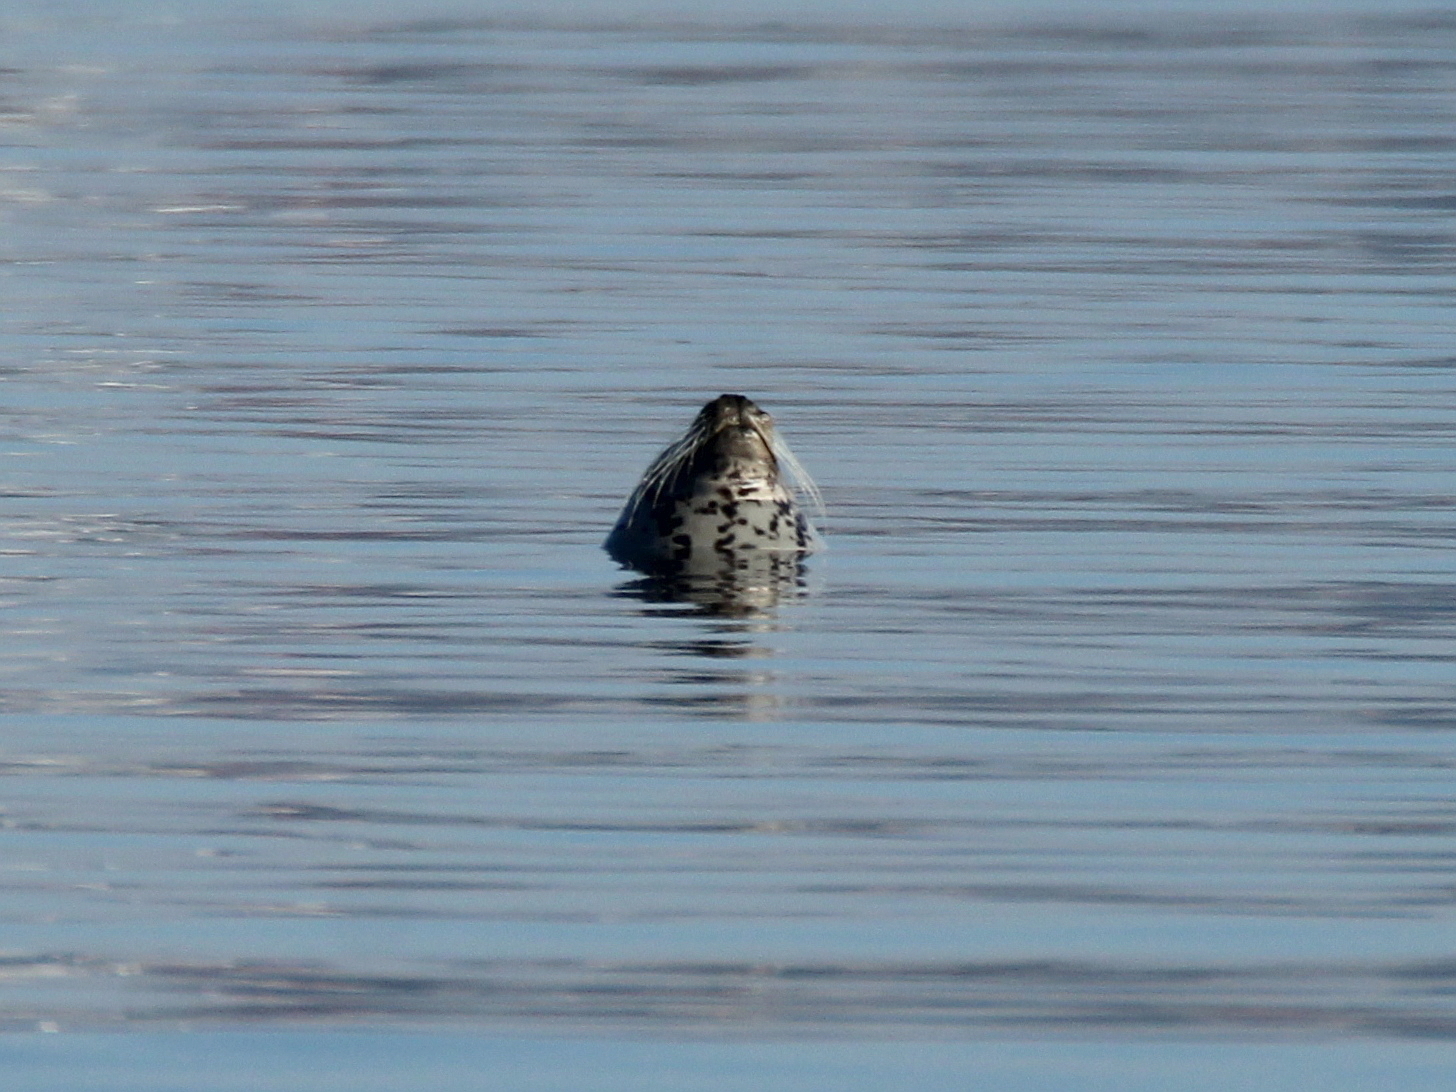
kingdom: Animalia
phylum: Chordata
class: Mammalia
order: Carnivora
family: Phocidae
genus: Phoca
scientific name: Phoca largha
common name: Spotted seal
